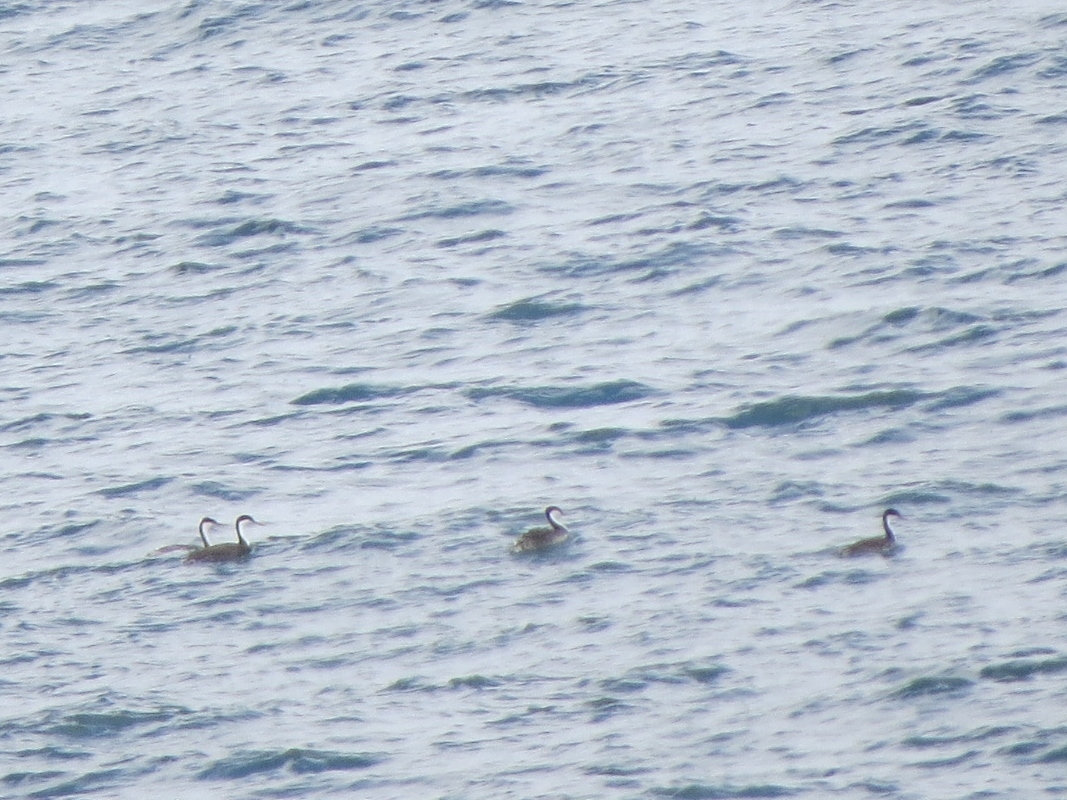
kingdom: Animalia
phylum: Chordata
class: Aves
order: Podicipediformes
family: Podicipedidae
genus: Aechmophorus
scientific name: Aechmophorus occidentalis
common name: Western grebe
